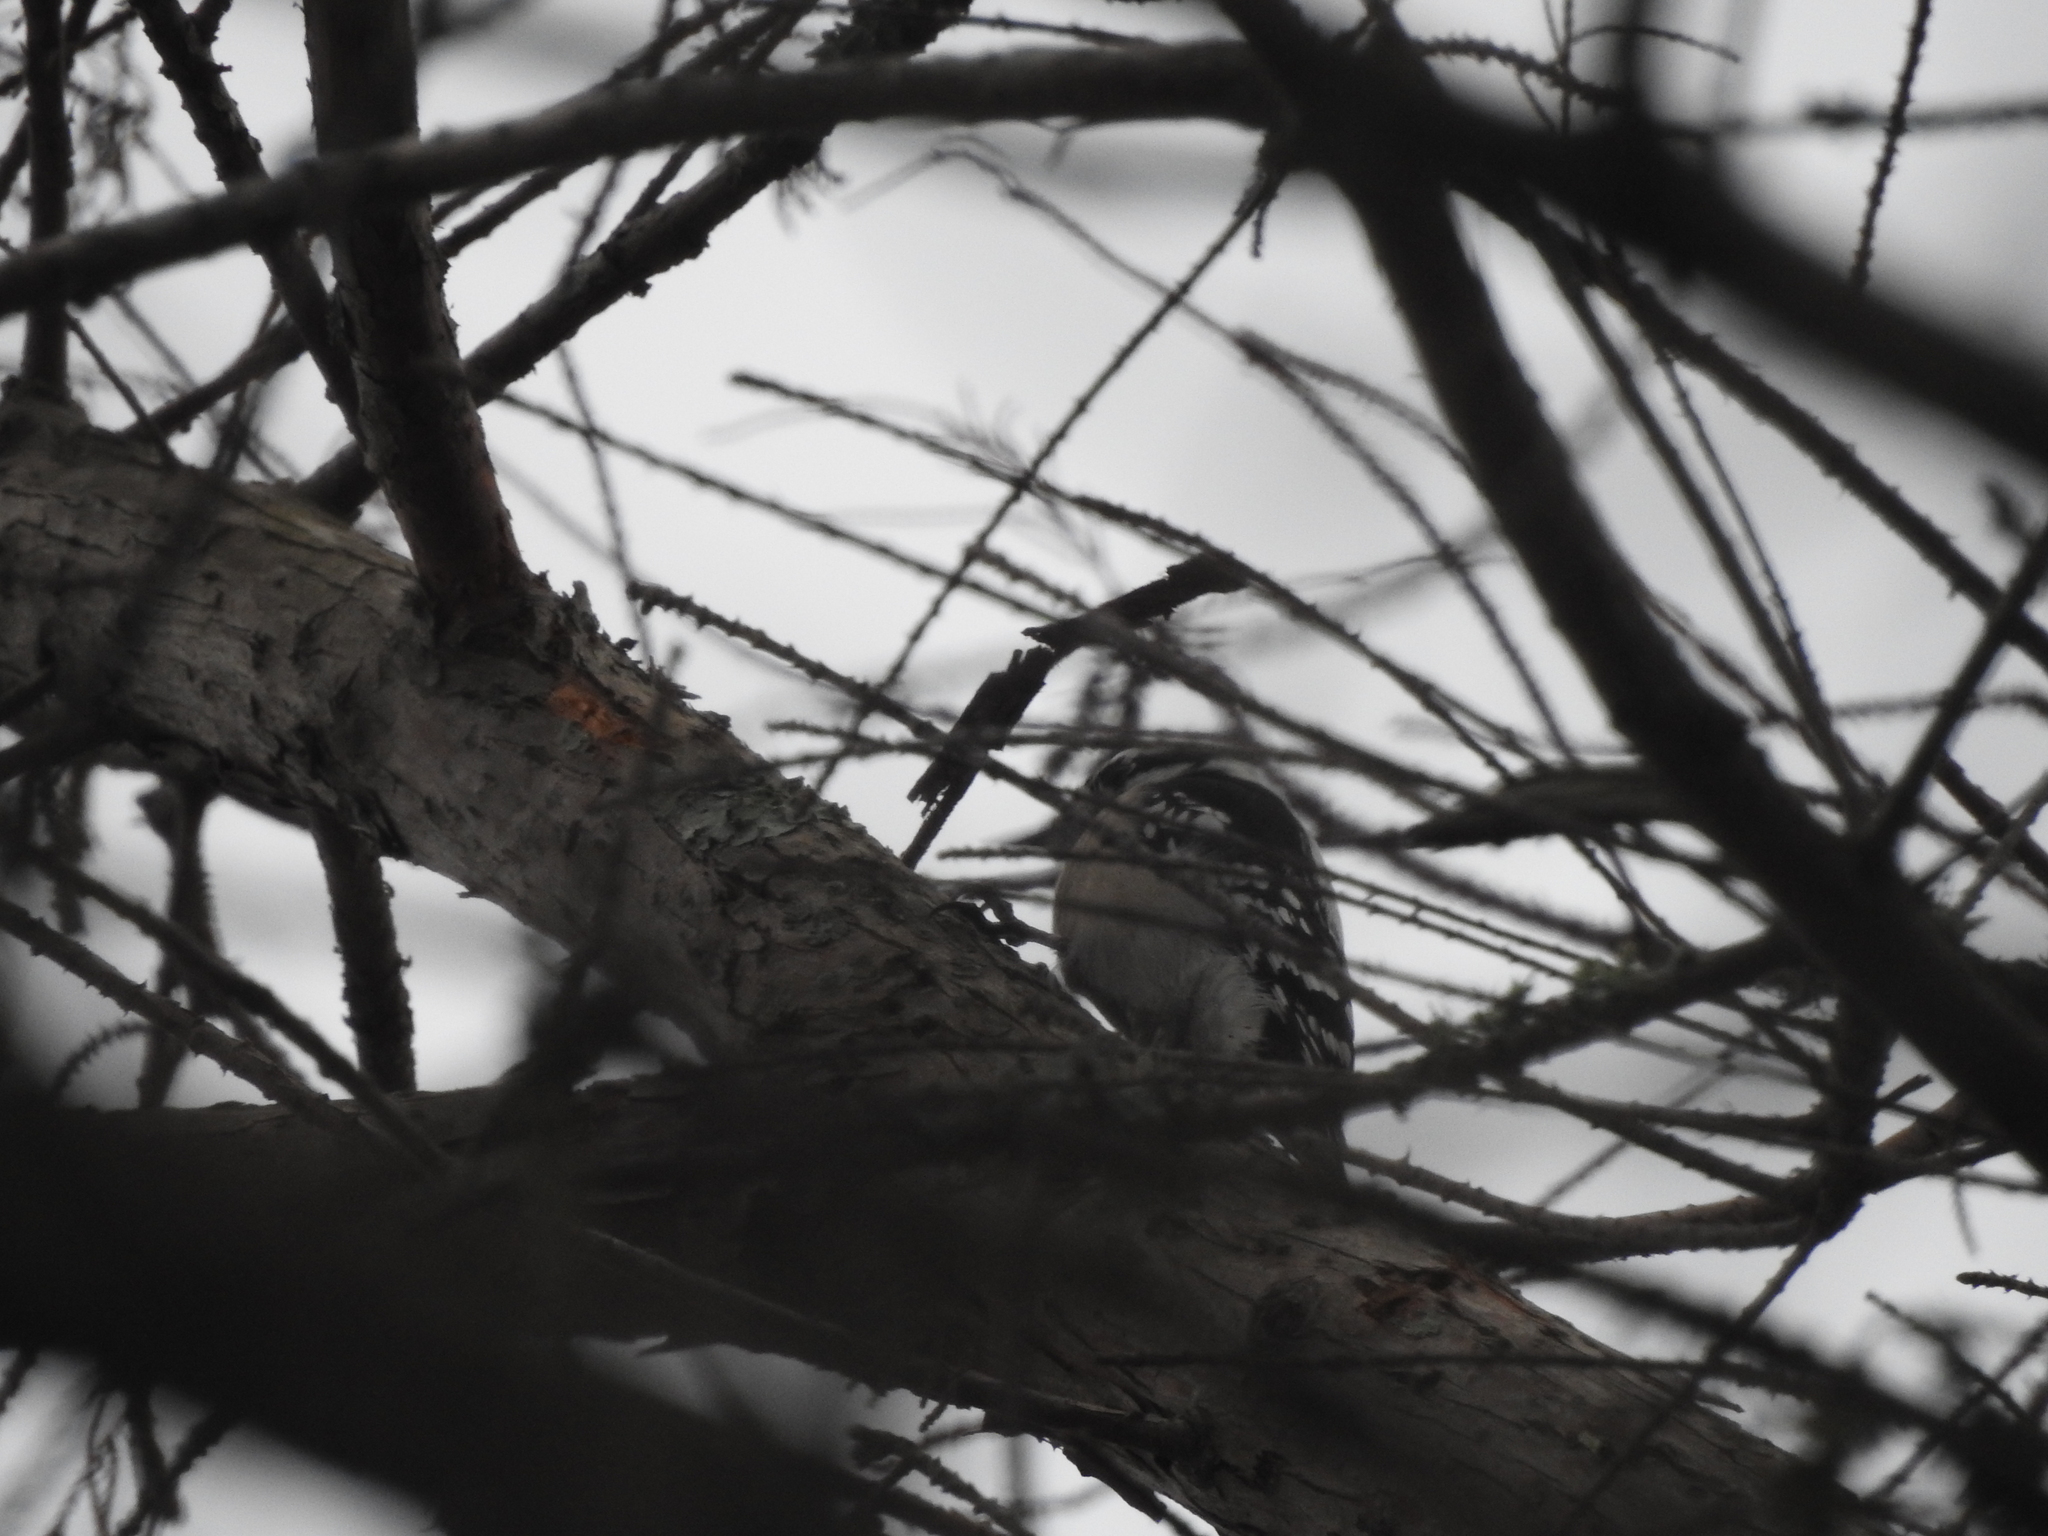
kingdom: Animalia
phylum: Chordata
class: Aves
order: Piciformes
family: Picidae
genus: Dryobates
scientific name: Dryobates pubescens
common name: Downy woodpecker
